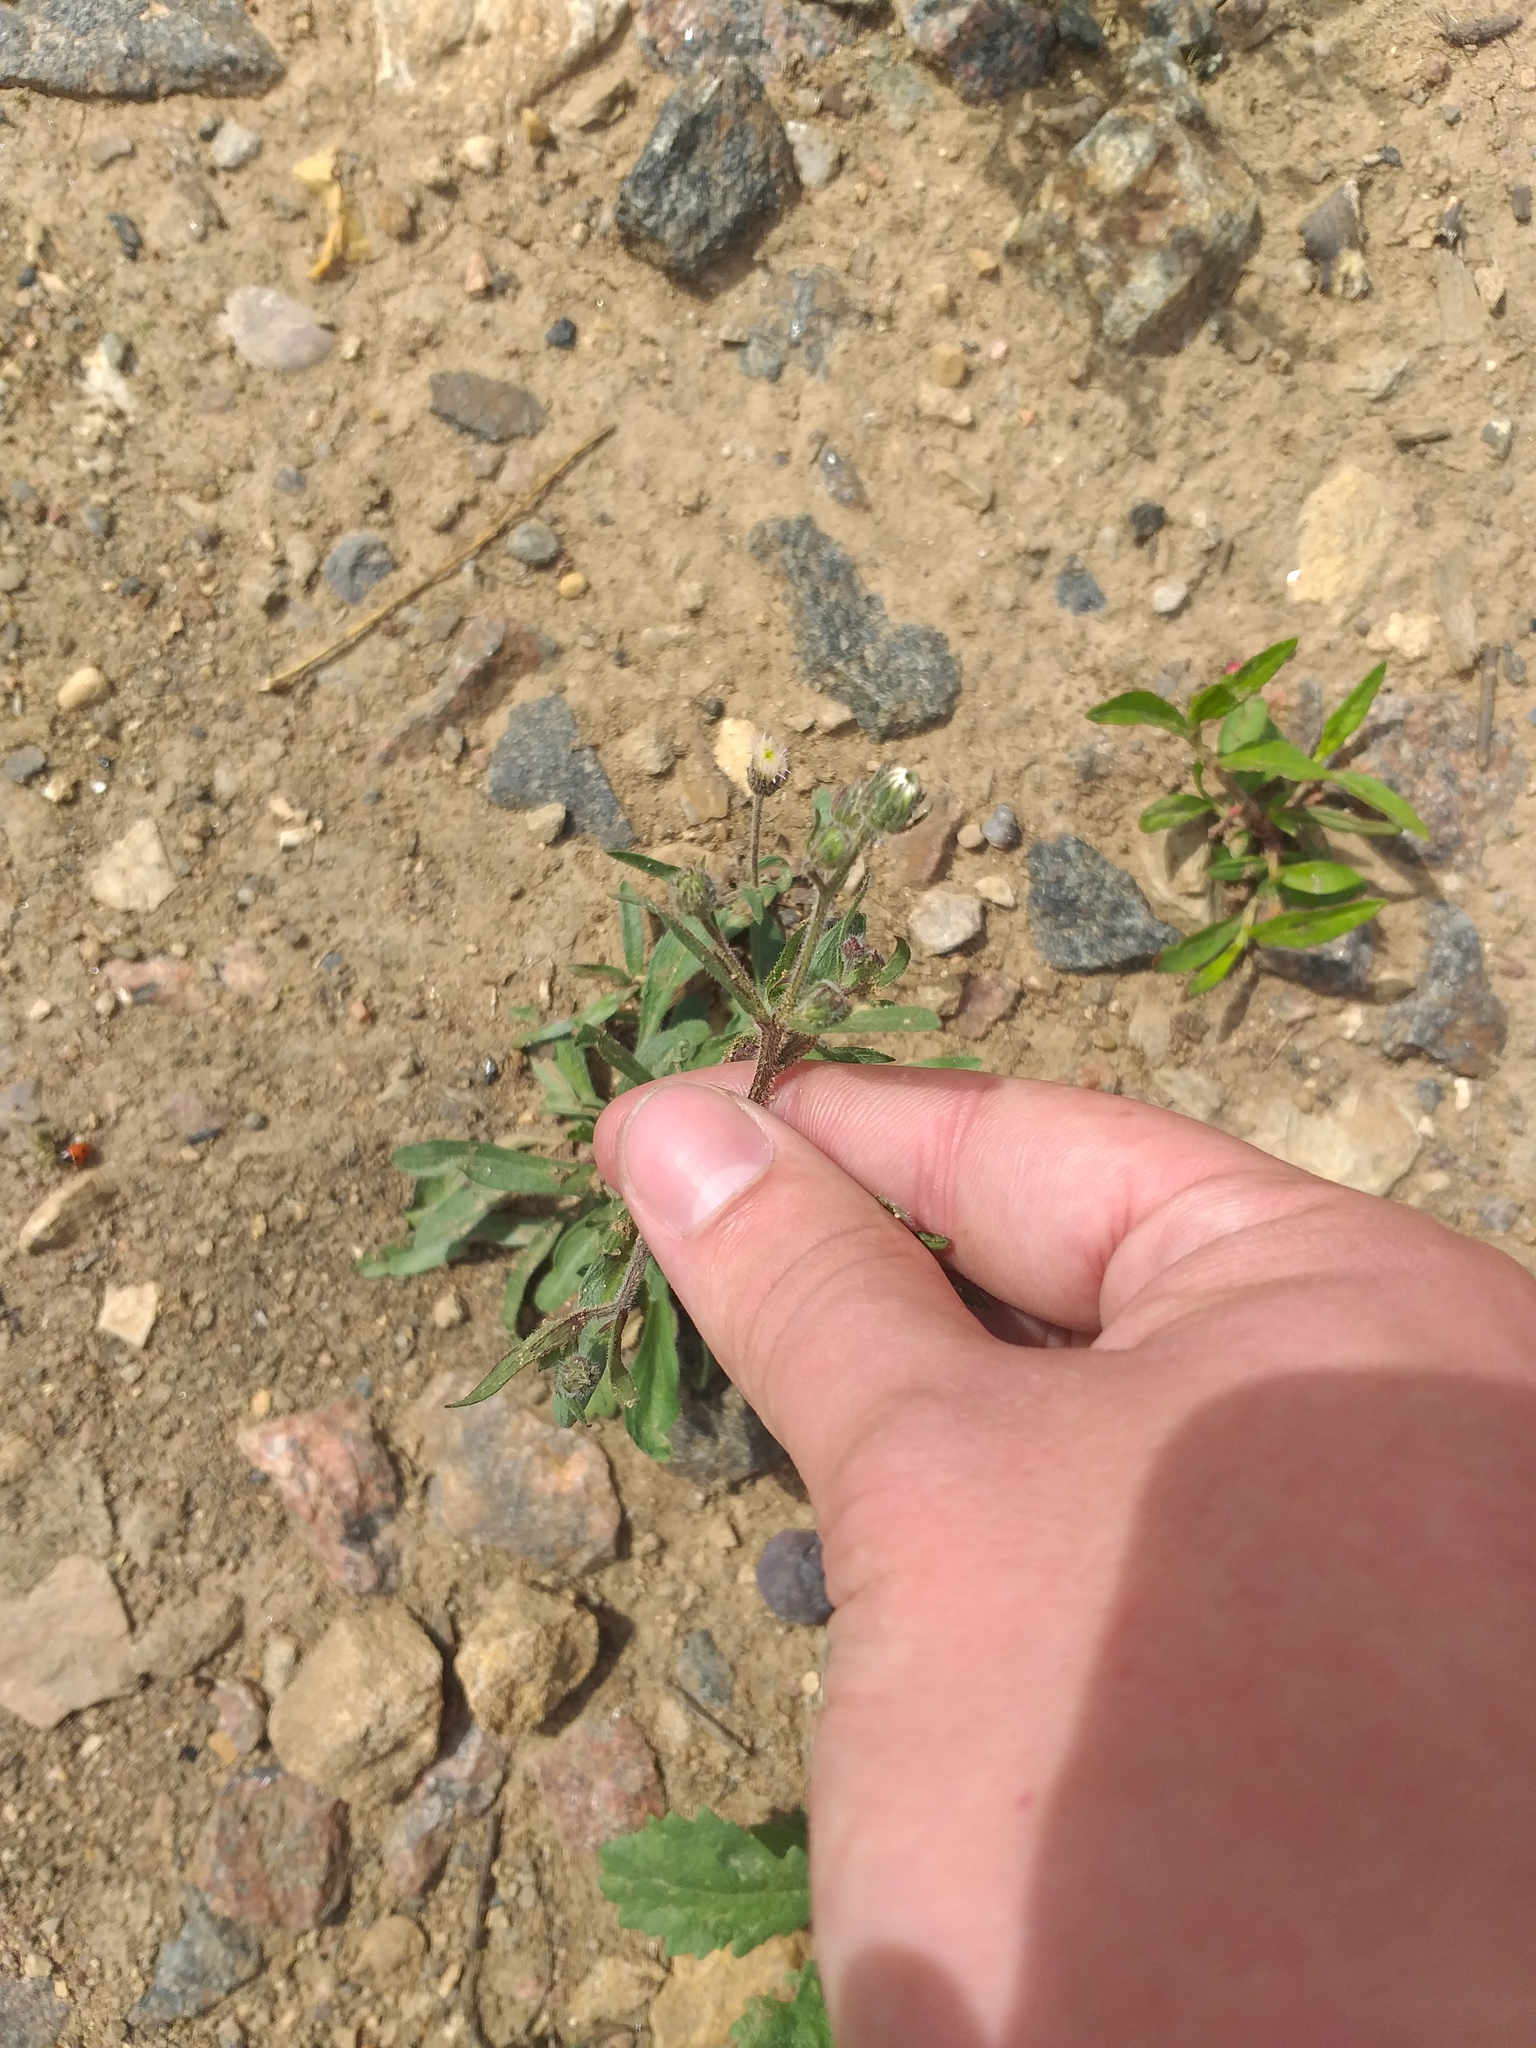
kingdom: Plantae
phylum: Tracheophyta
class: Magnoliopsida
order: Asterales
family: Asteraceae
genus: Erigeron
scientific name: Erigeron acris
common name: Blue fleabane
